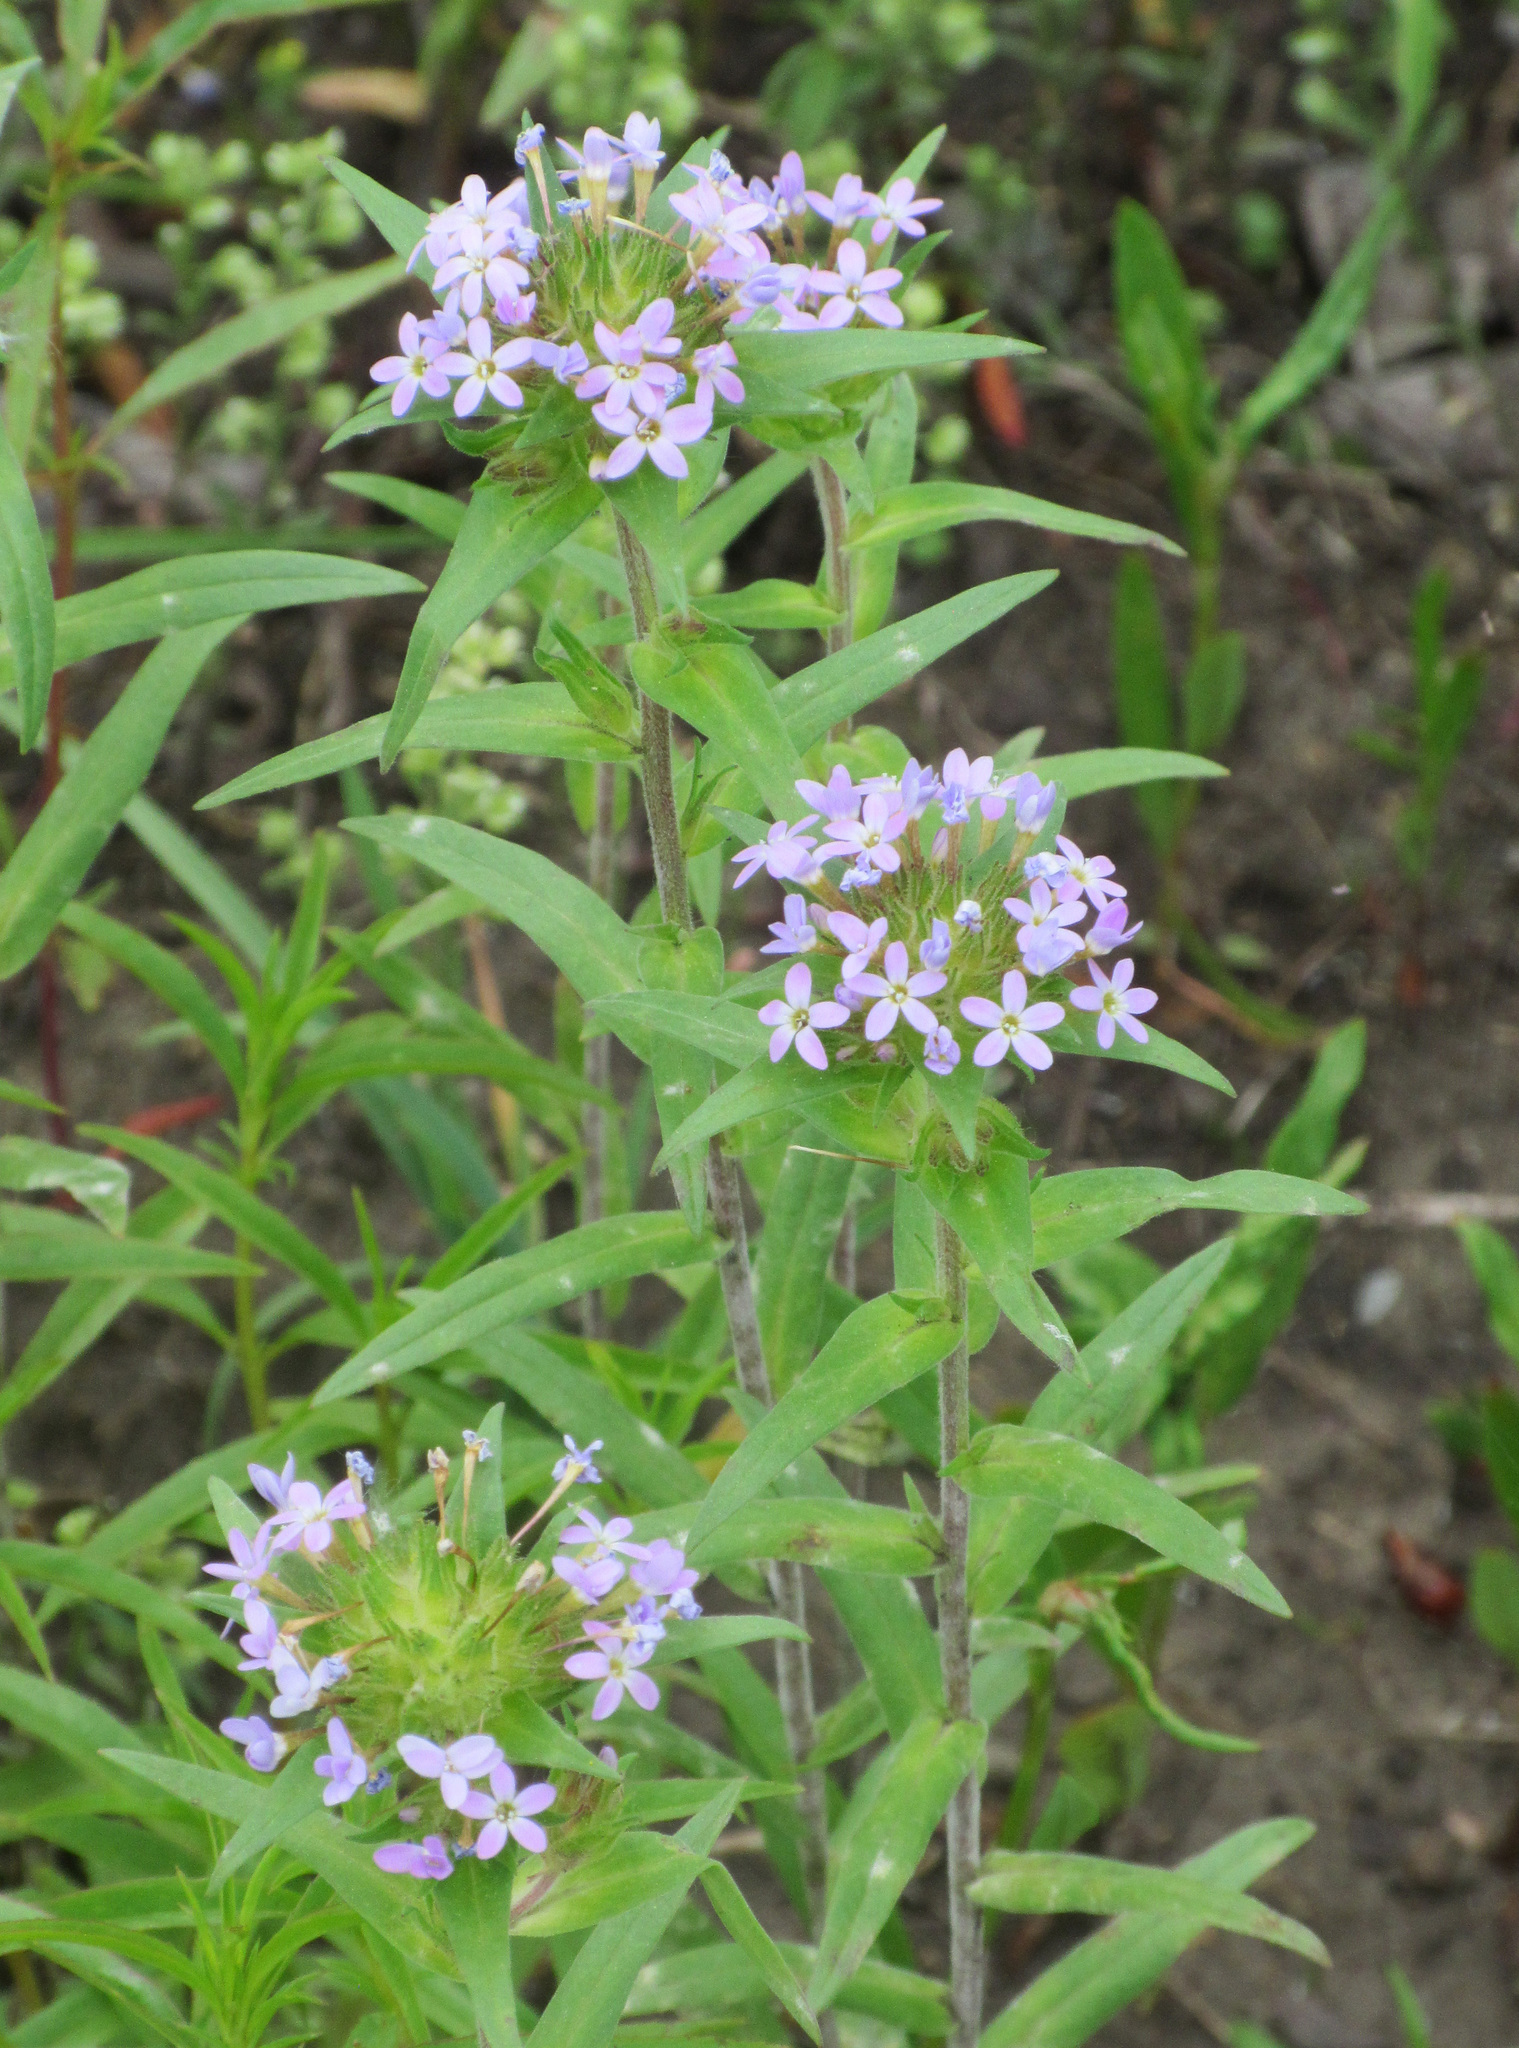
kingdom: Plantae
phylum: Tracheophyta
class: Magnoliopsida
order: Ericales
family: Polemoniaceae
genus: Collomia
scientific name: Collomia linearis
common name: Tiny trumpet
